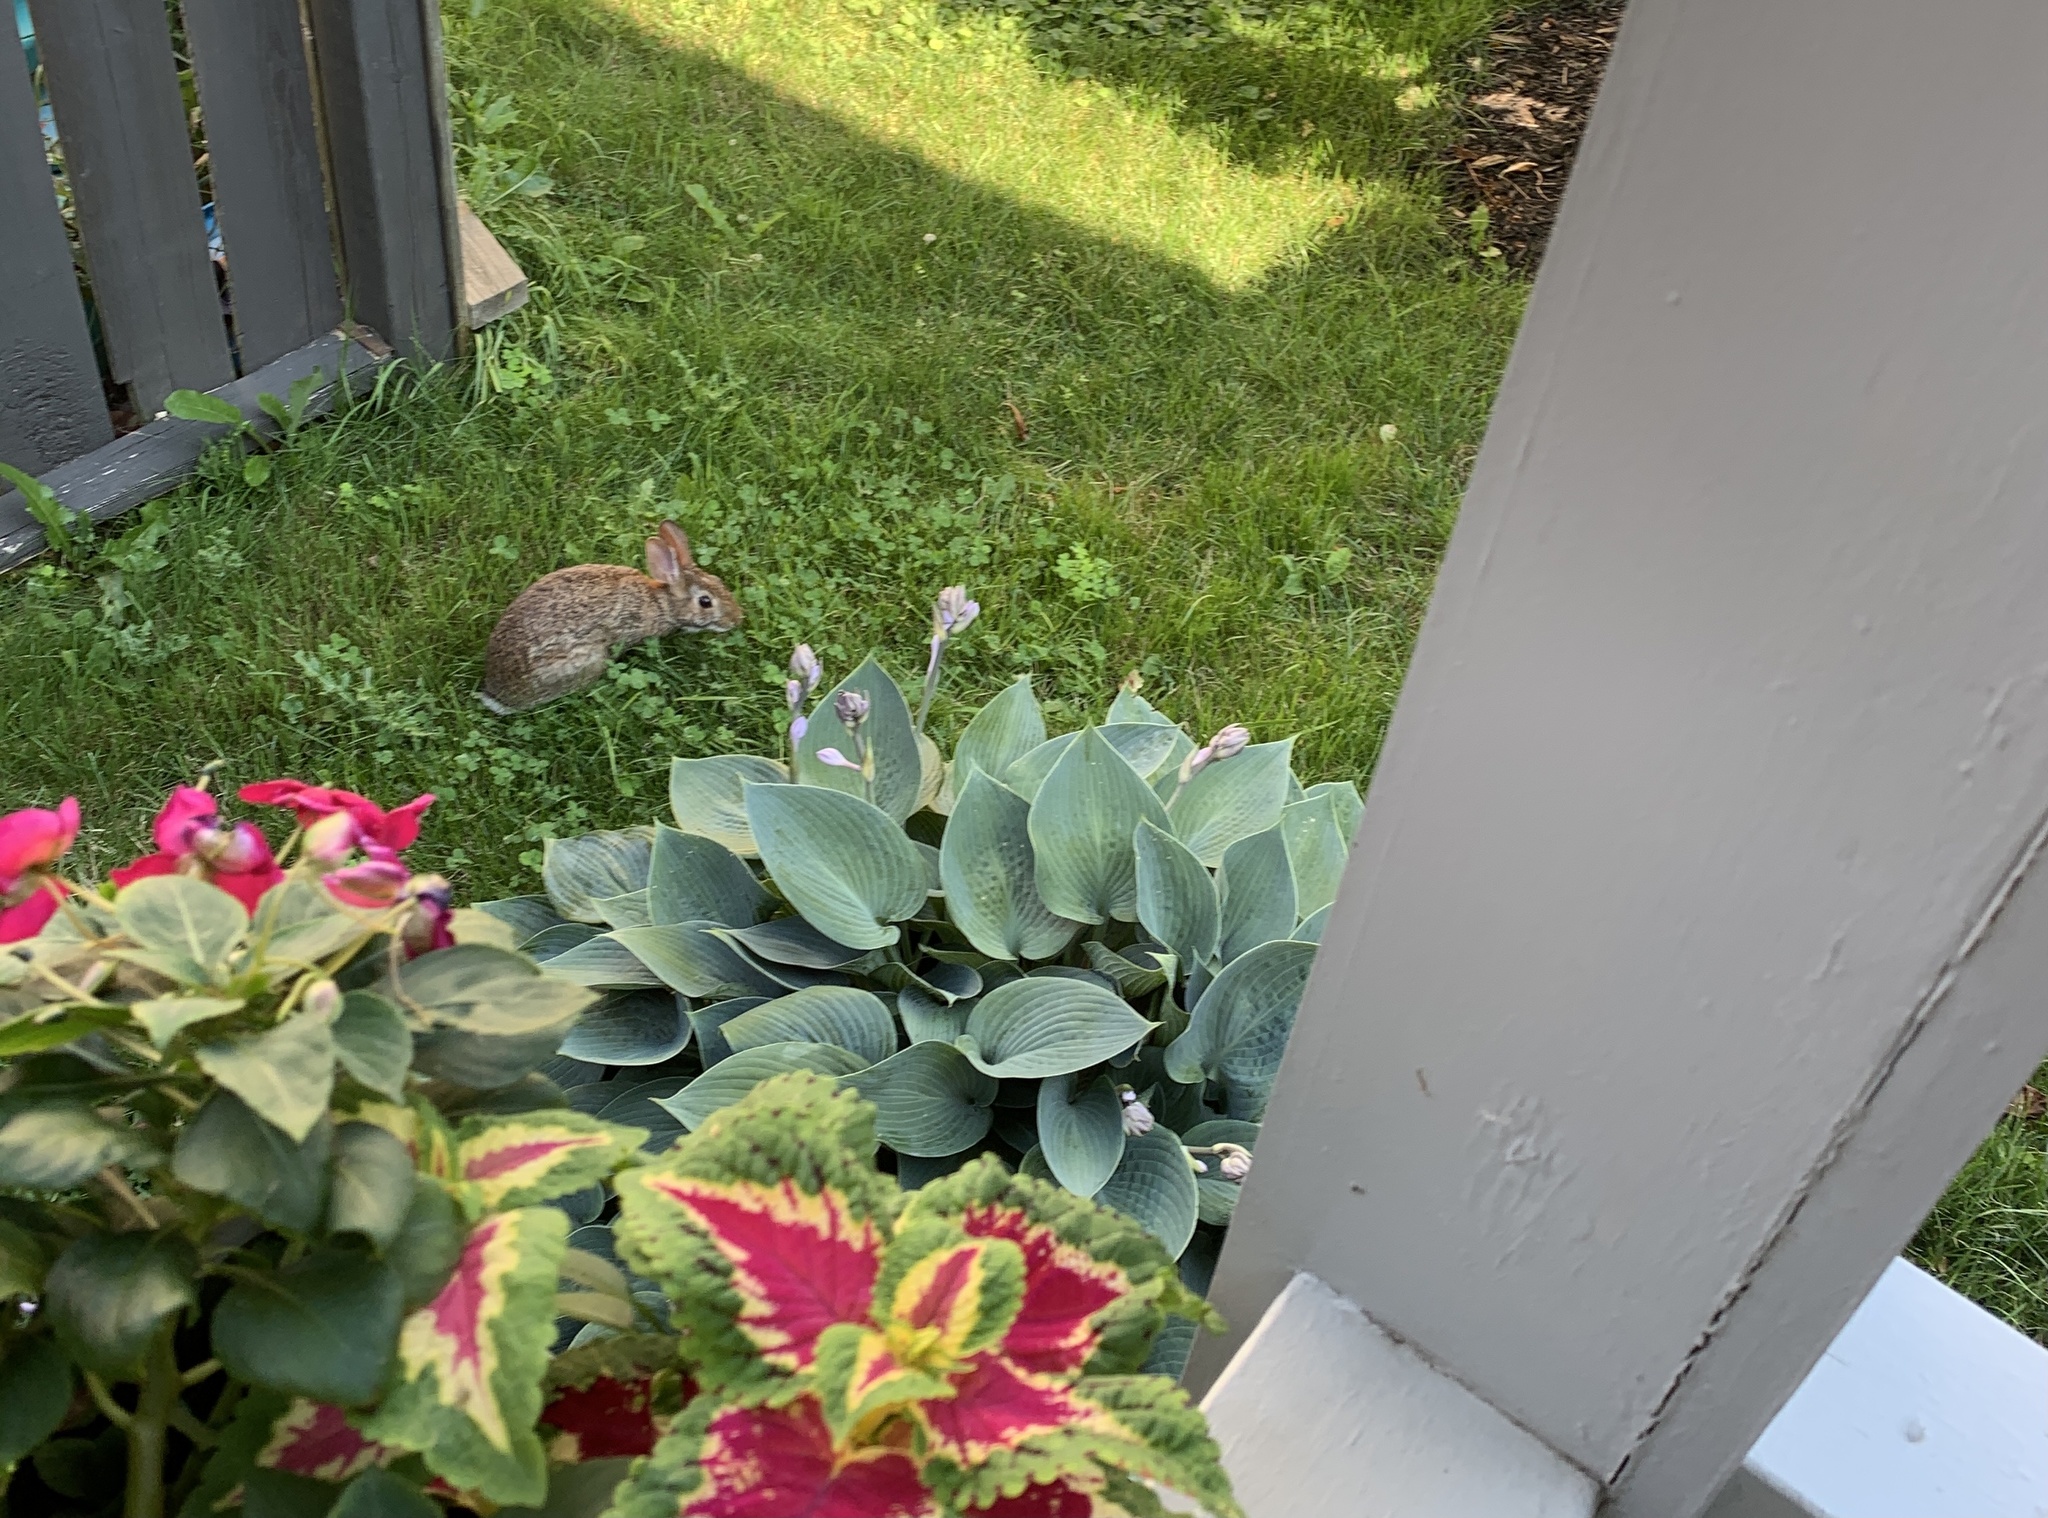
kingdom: Animalia
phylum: Chordata
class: Mammalia
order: Lagomorpha
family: Leporidae
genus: Sylvilagus
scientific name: Sylvilagus floridanus
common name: Eastern cottontail
